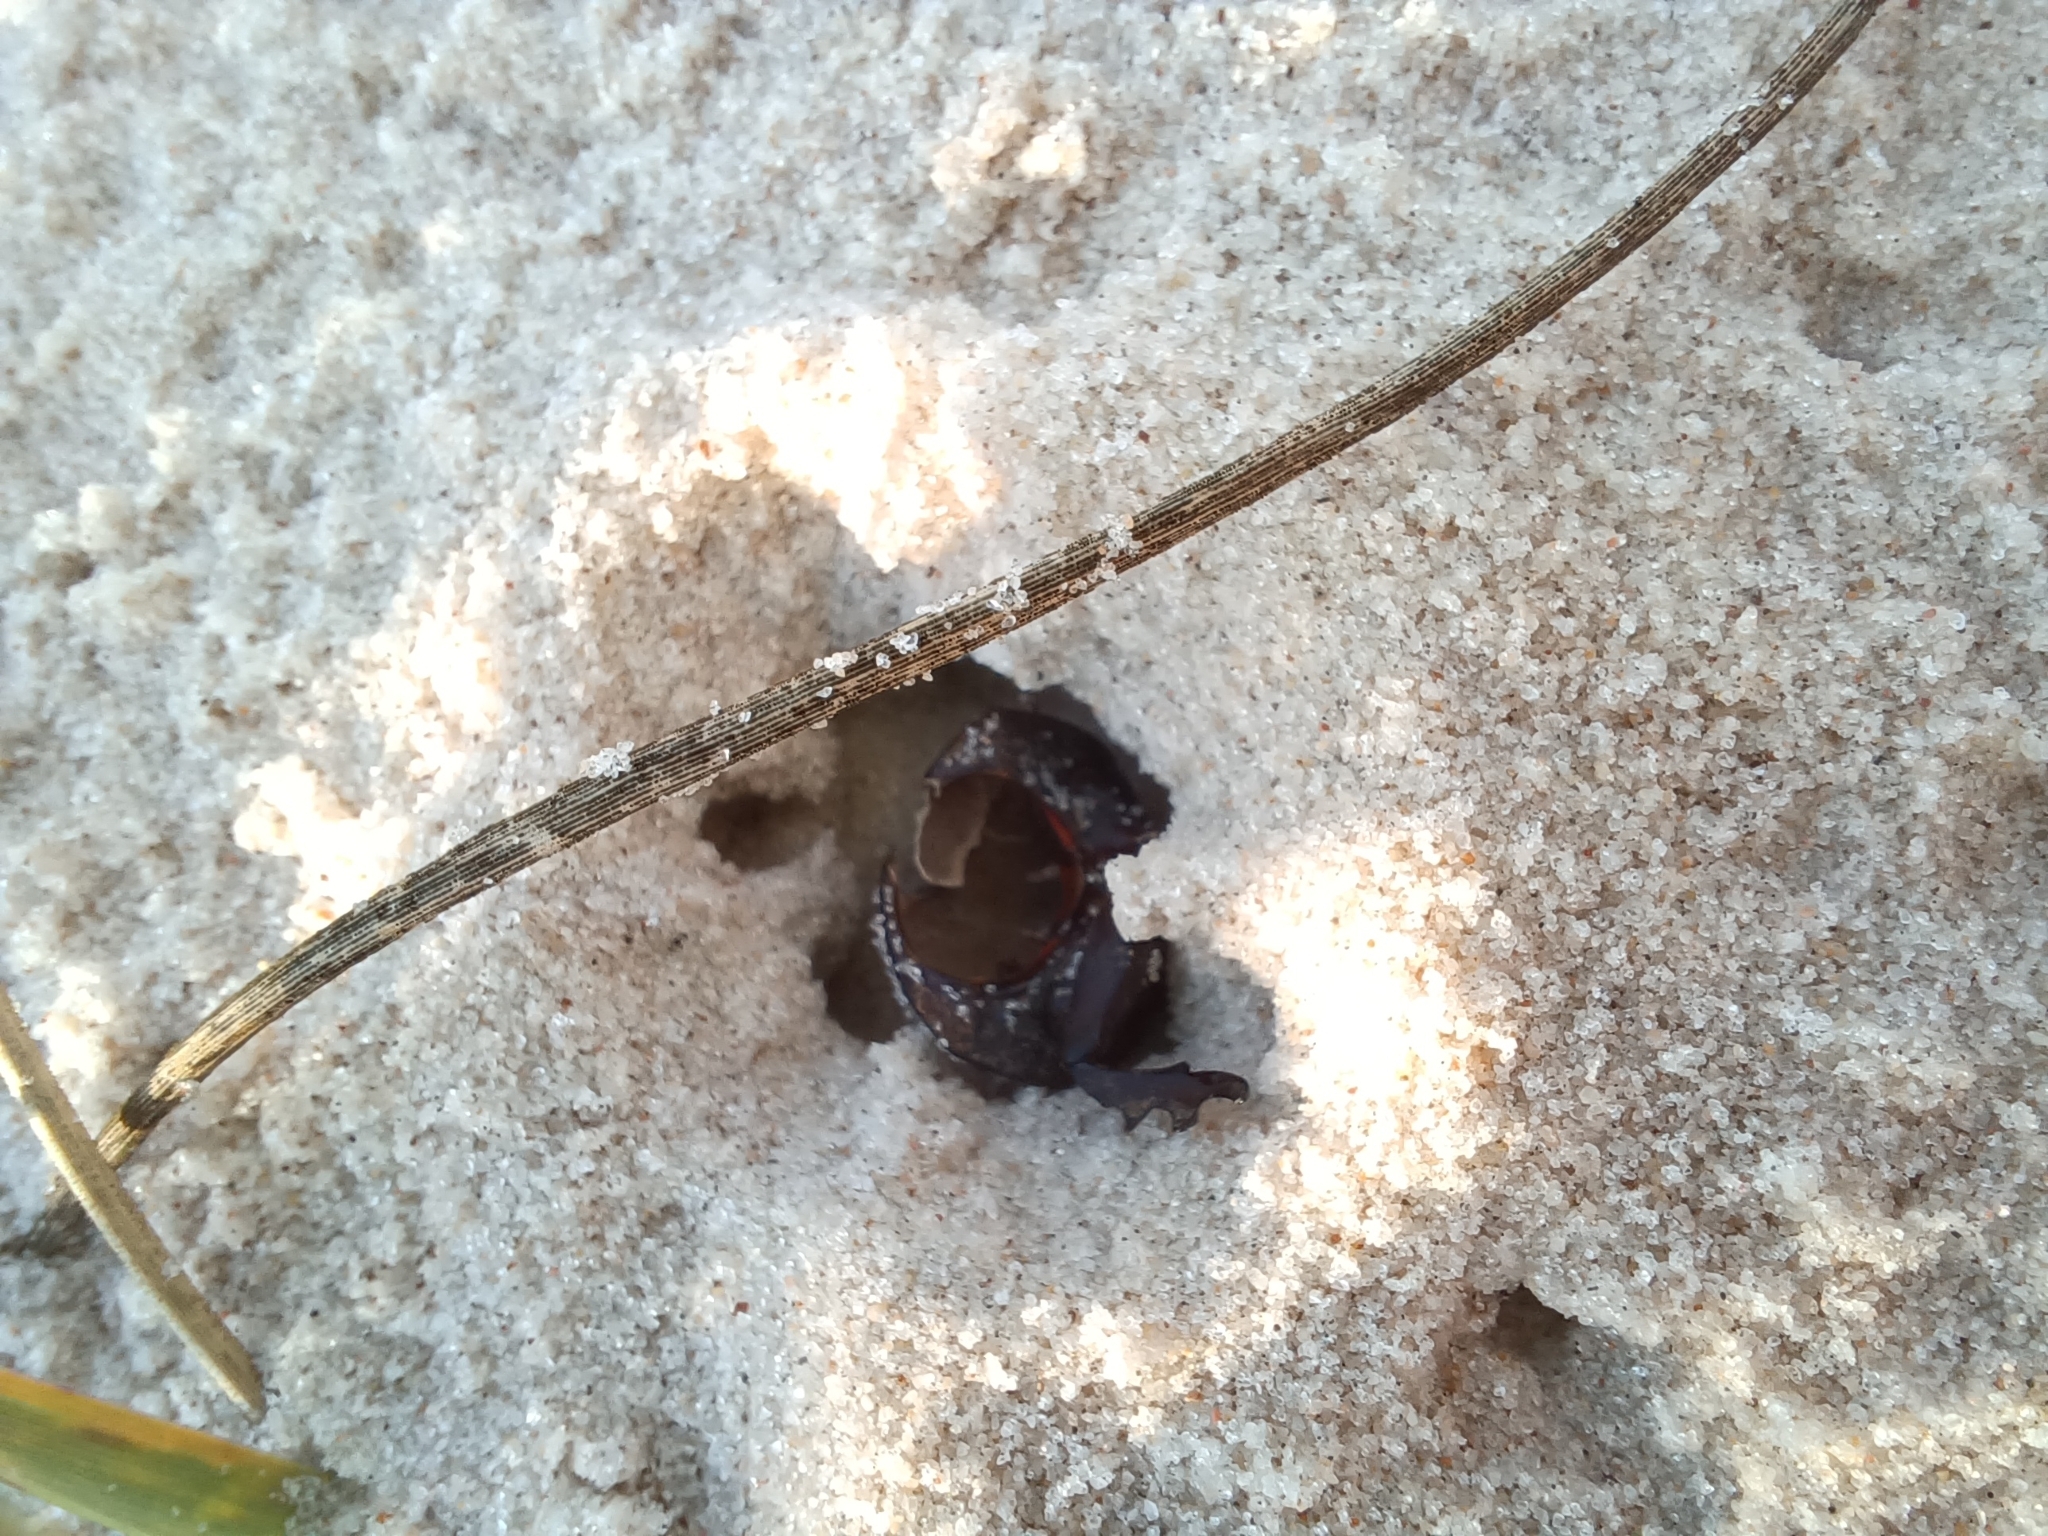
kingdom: Animalia
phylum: Arthropoda
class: Insecta
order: Coleoptera
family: Scarabaeidae
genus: Diloboderus
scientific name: Diloboderus abderus
